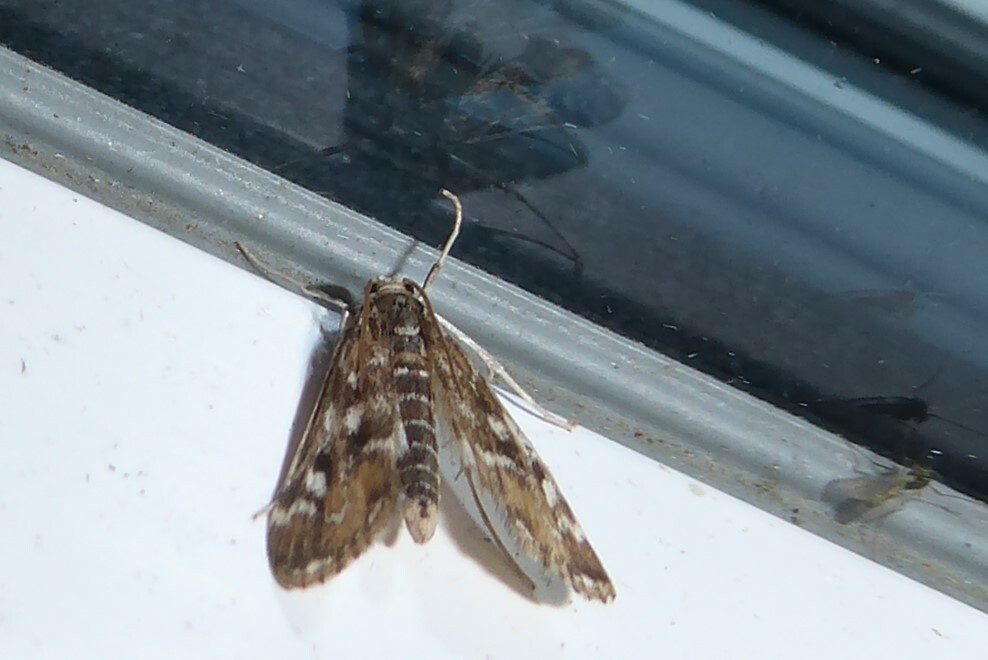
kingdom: Animalia
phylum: Arthropoda
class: Insecta
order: Lepidoptera
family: Crambidae
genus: Hygraula
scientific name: Hygraula nitens
